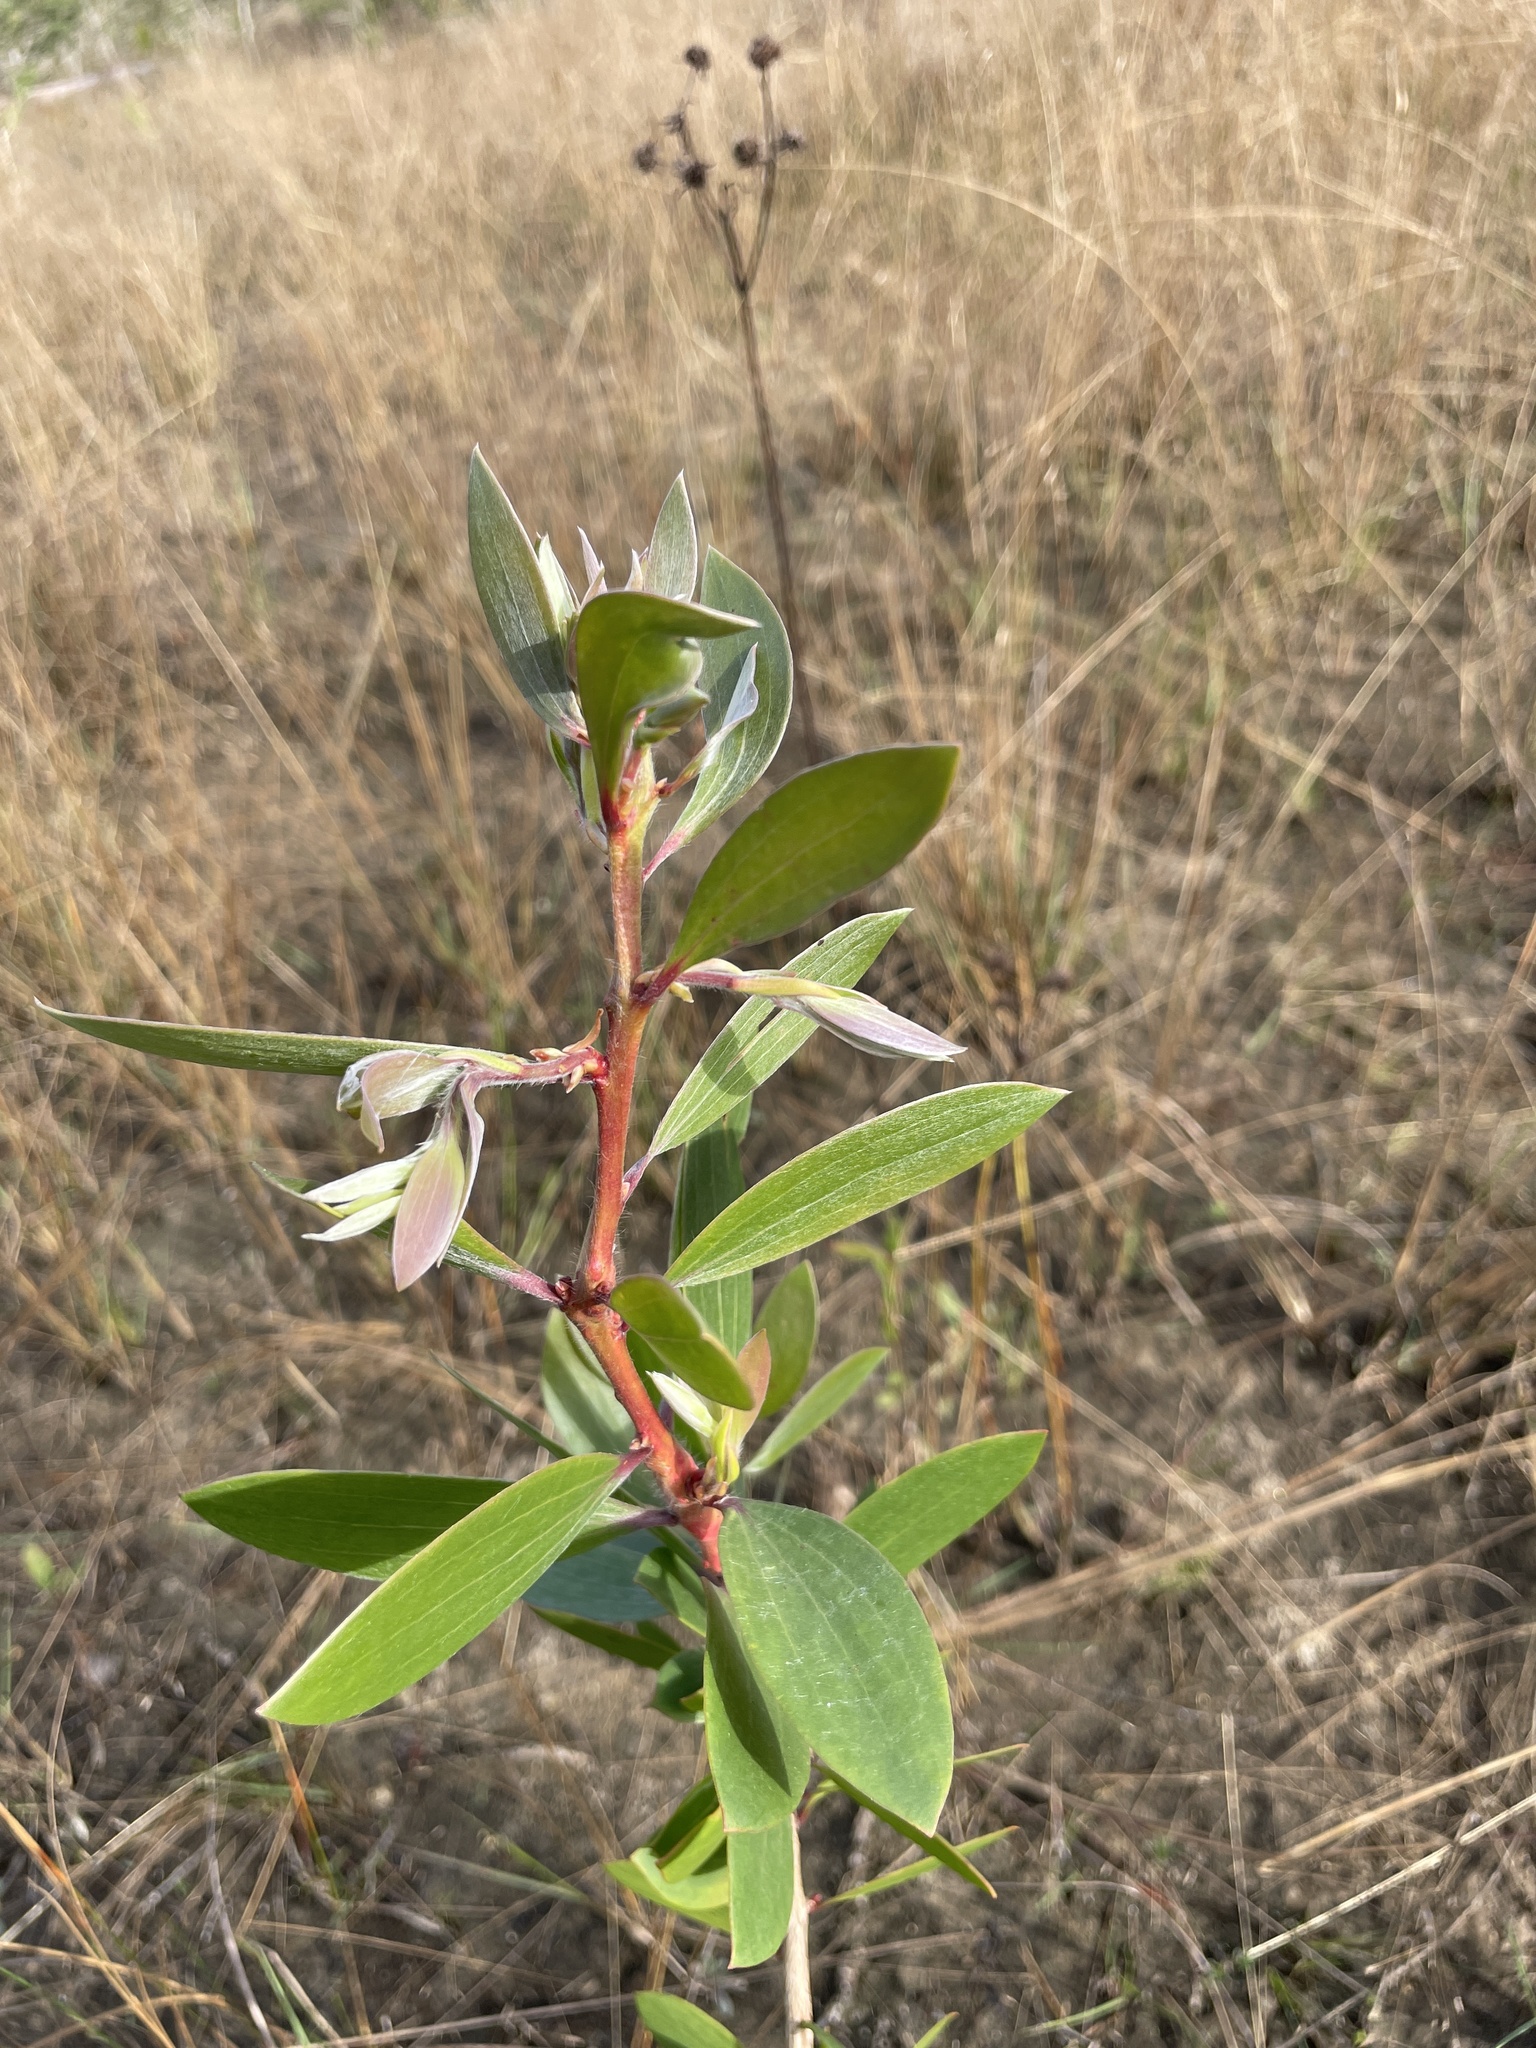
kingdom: Plantae
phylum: Tracheophyta
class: Magnoliopsida
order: Myrtales
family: Myrtaceae
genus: Melaleuca
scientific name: Melaleuca quinquenervia
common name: Punktree
